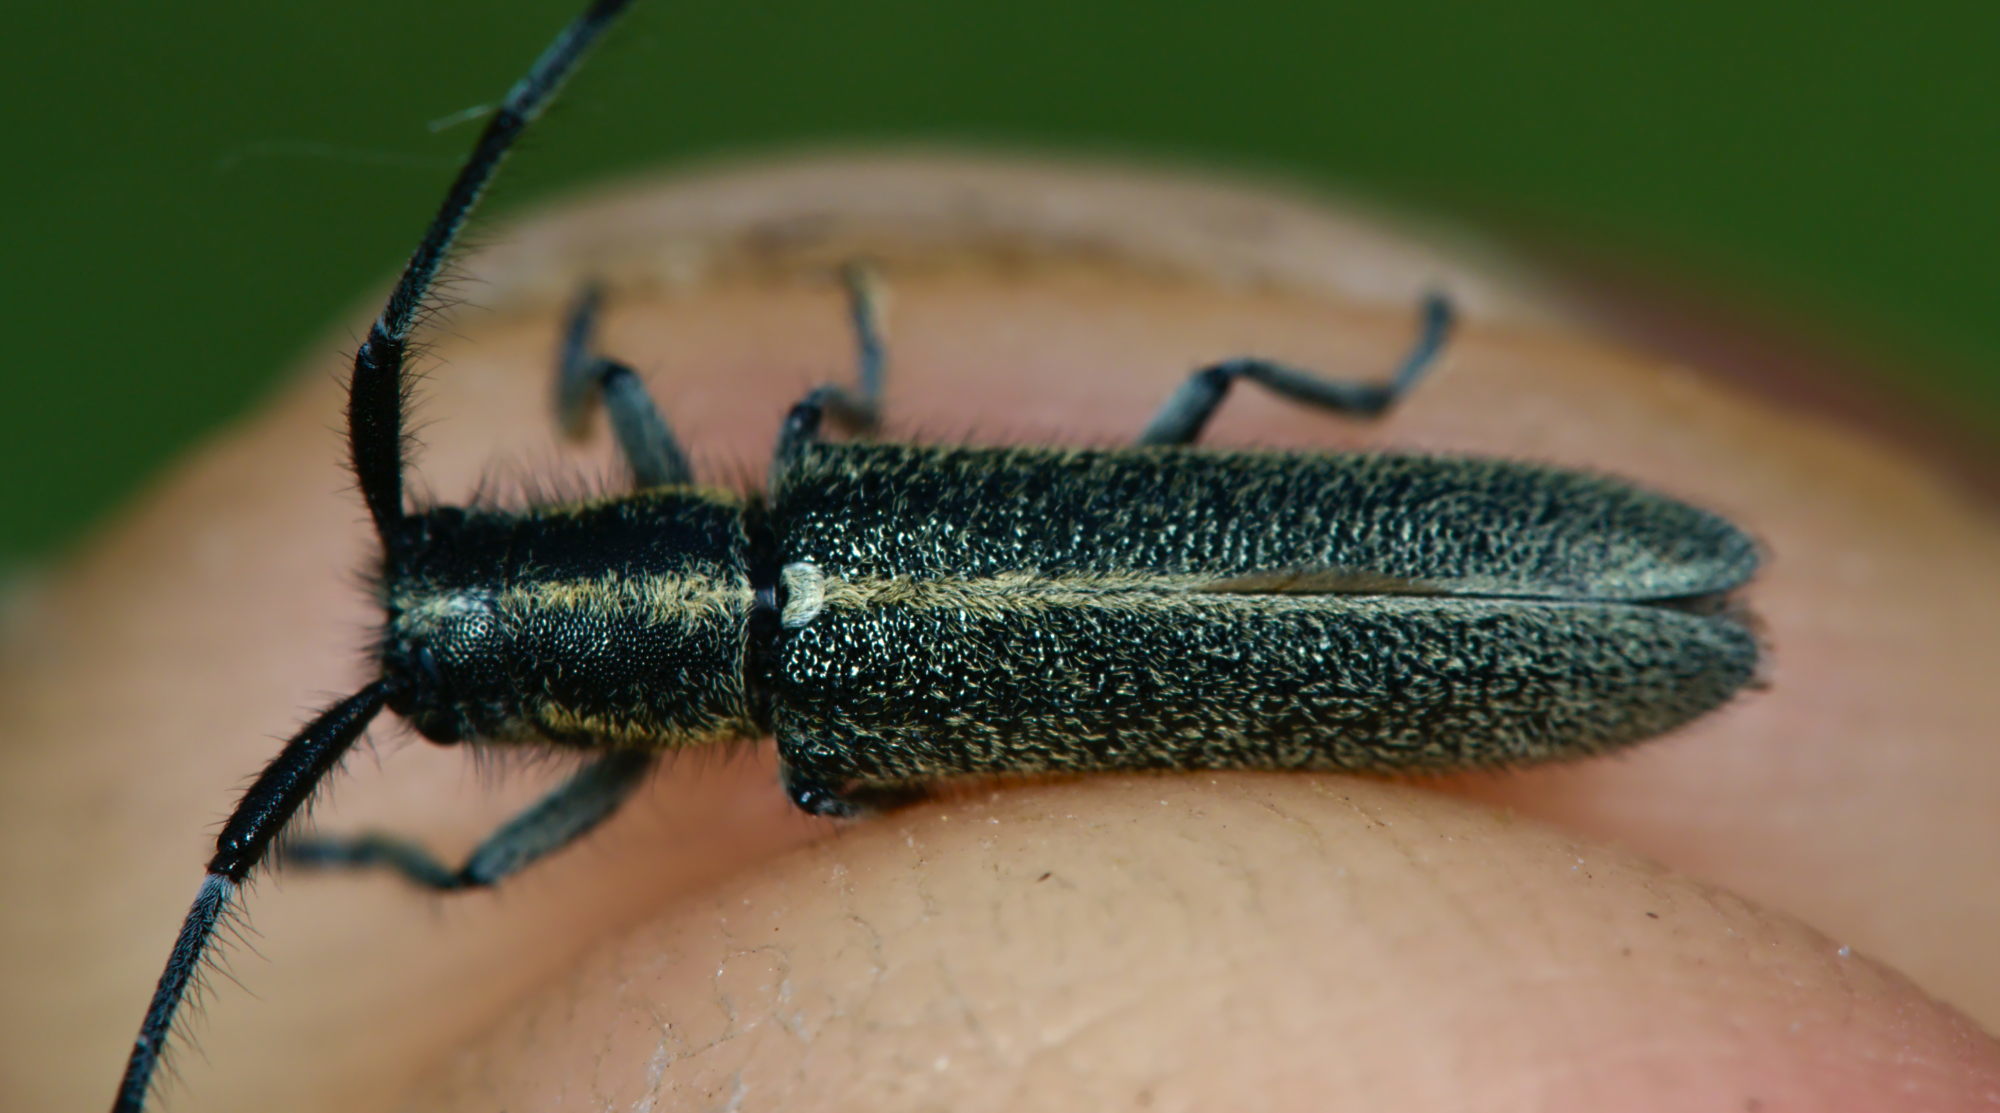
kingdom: Animalia
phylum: Arthropoda
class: Insecta
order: Coleoptera
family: Cerambycidae
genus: Agapanthia
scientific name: Agapanthia cardui
